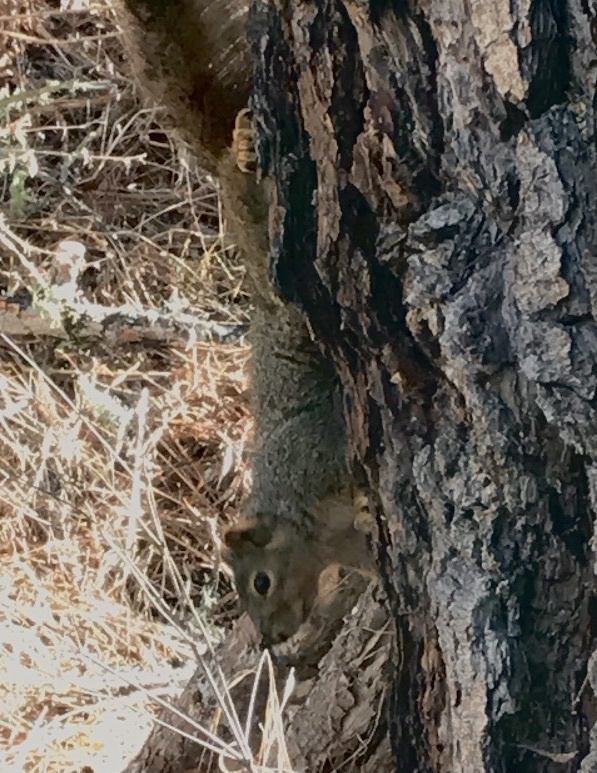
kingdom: Animalia
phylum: Chordata
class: Mammalia
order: Rodentia
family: Sciuridae
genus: Sciurus
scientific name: Sciurus niger
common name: Fox squirrel
